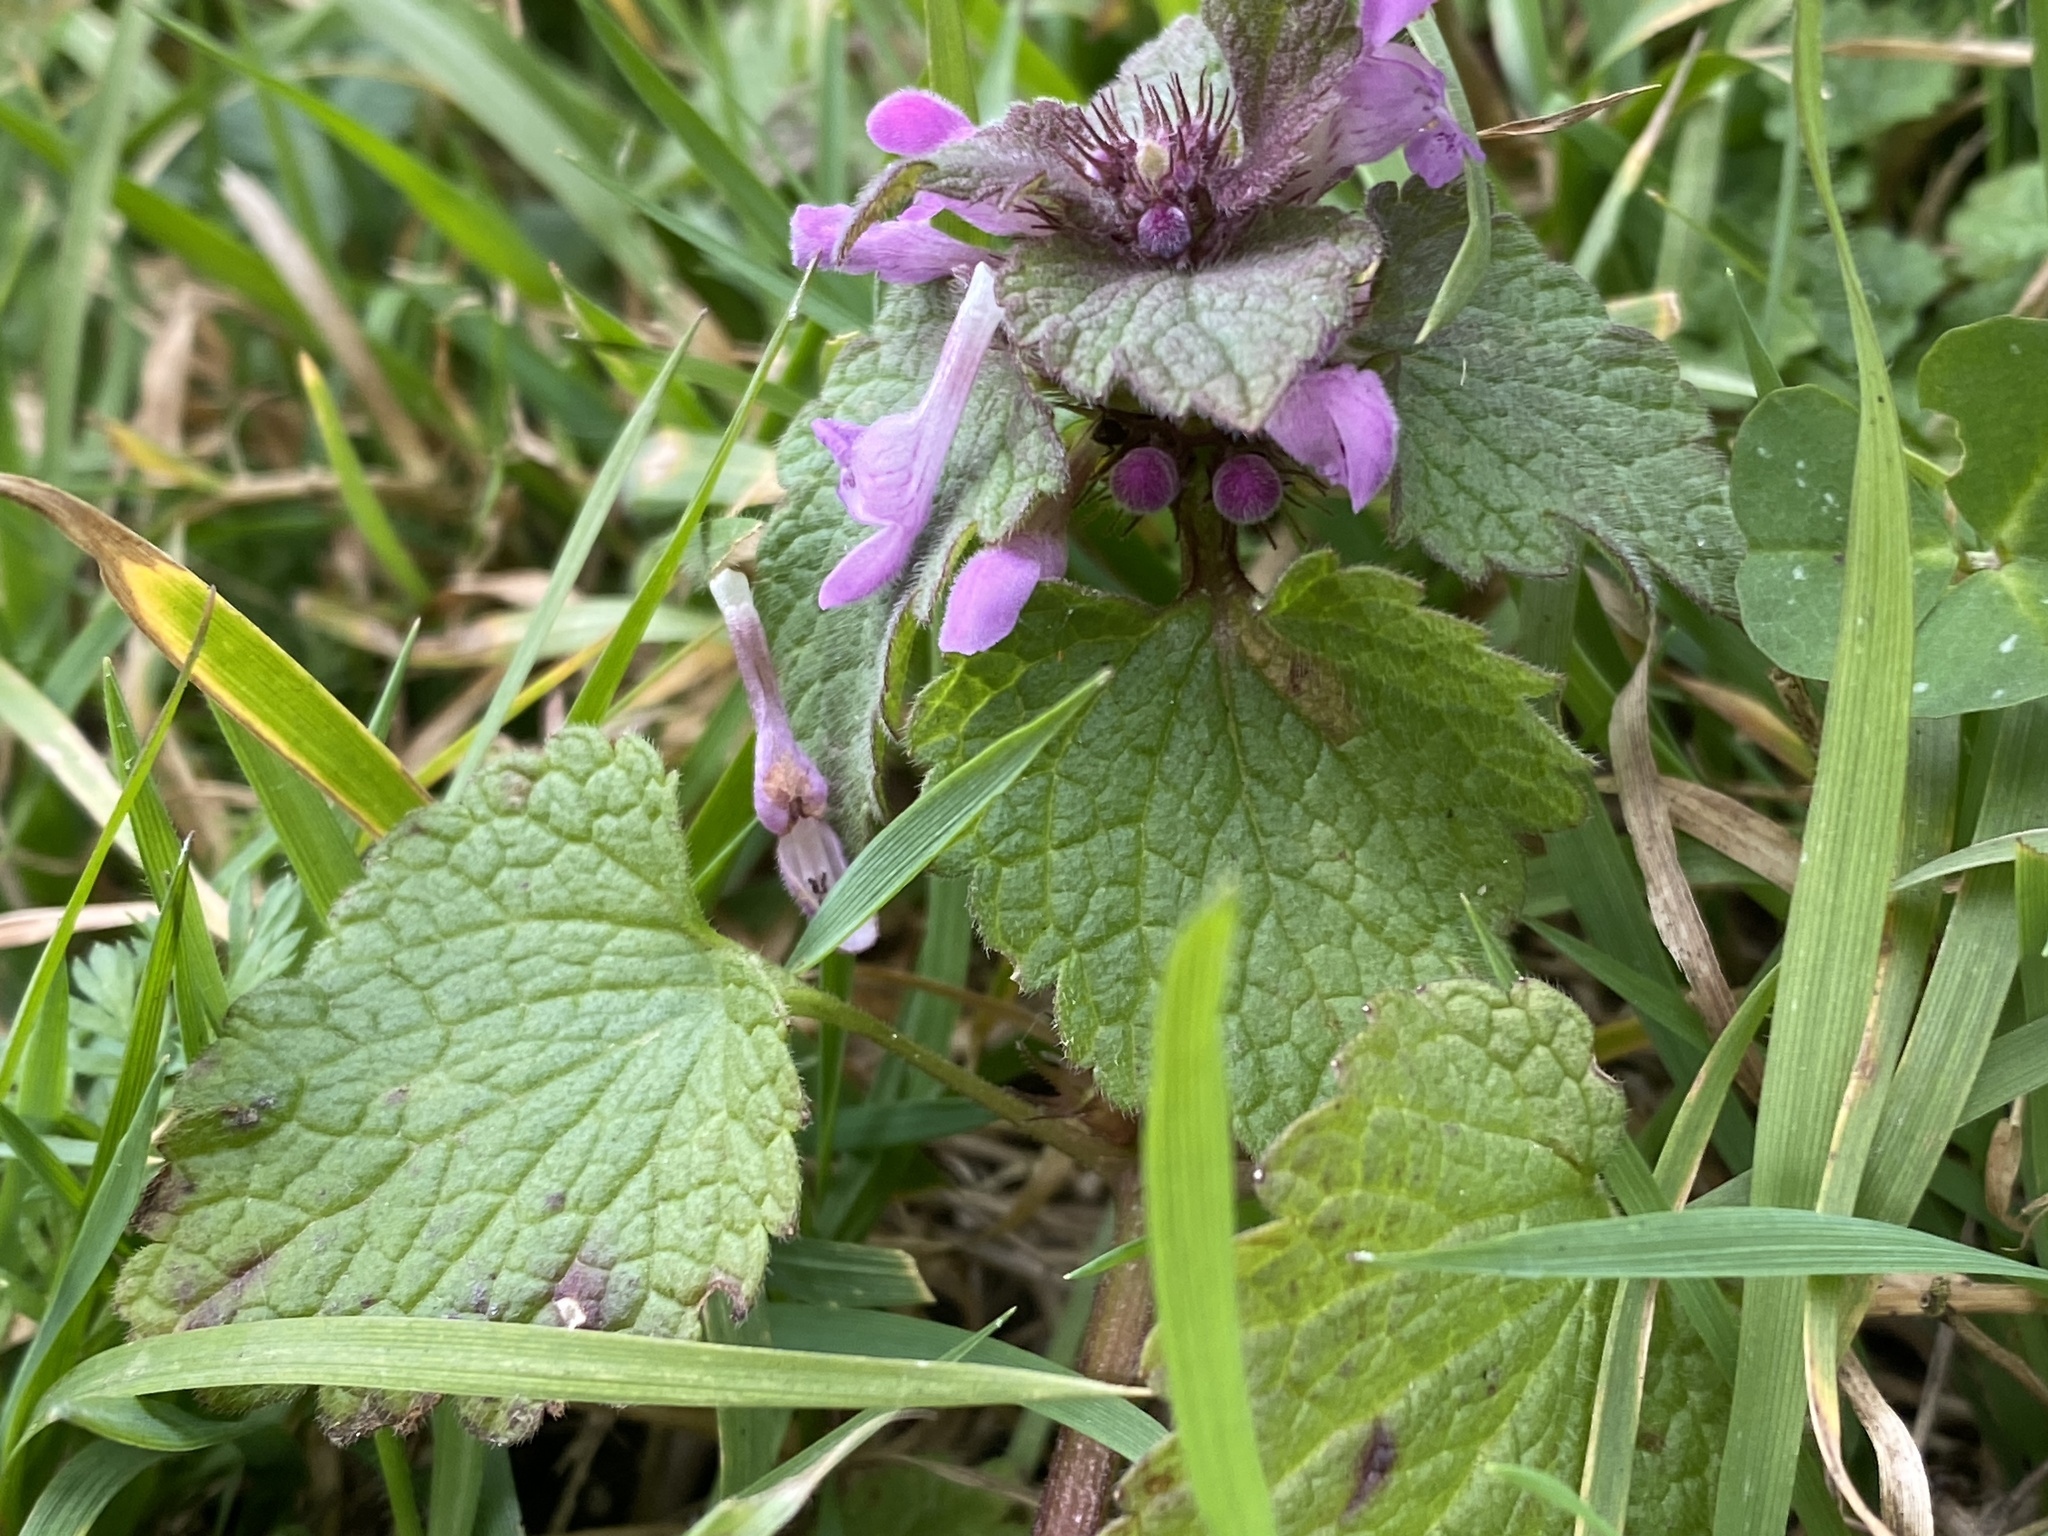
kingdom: Plantae
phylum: Tracheophyta
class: Magnoliopsida
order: Lamiales
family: Lamiaceae
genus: Lamium
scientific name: Lamium purpureum
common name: Red dead-nettle
